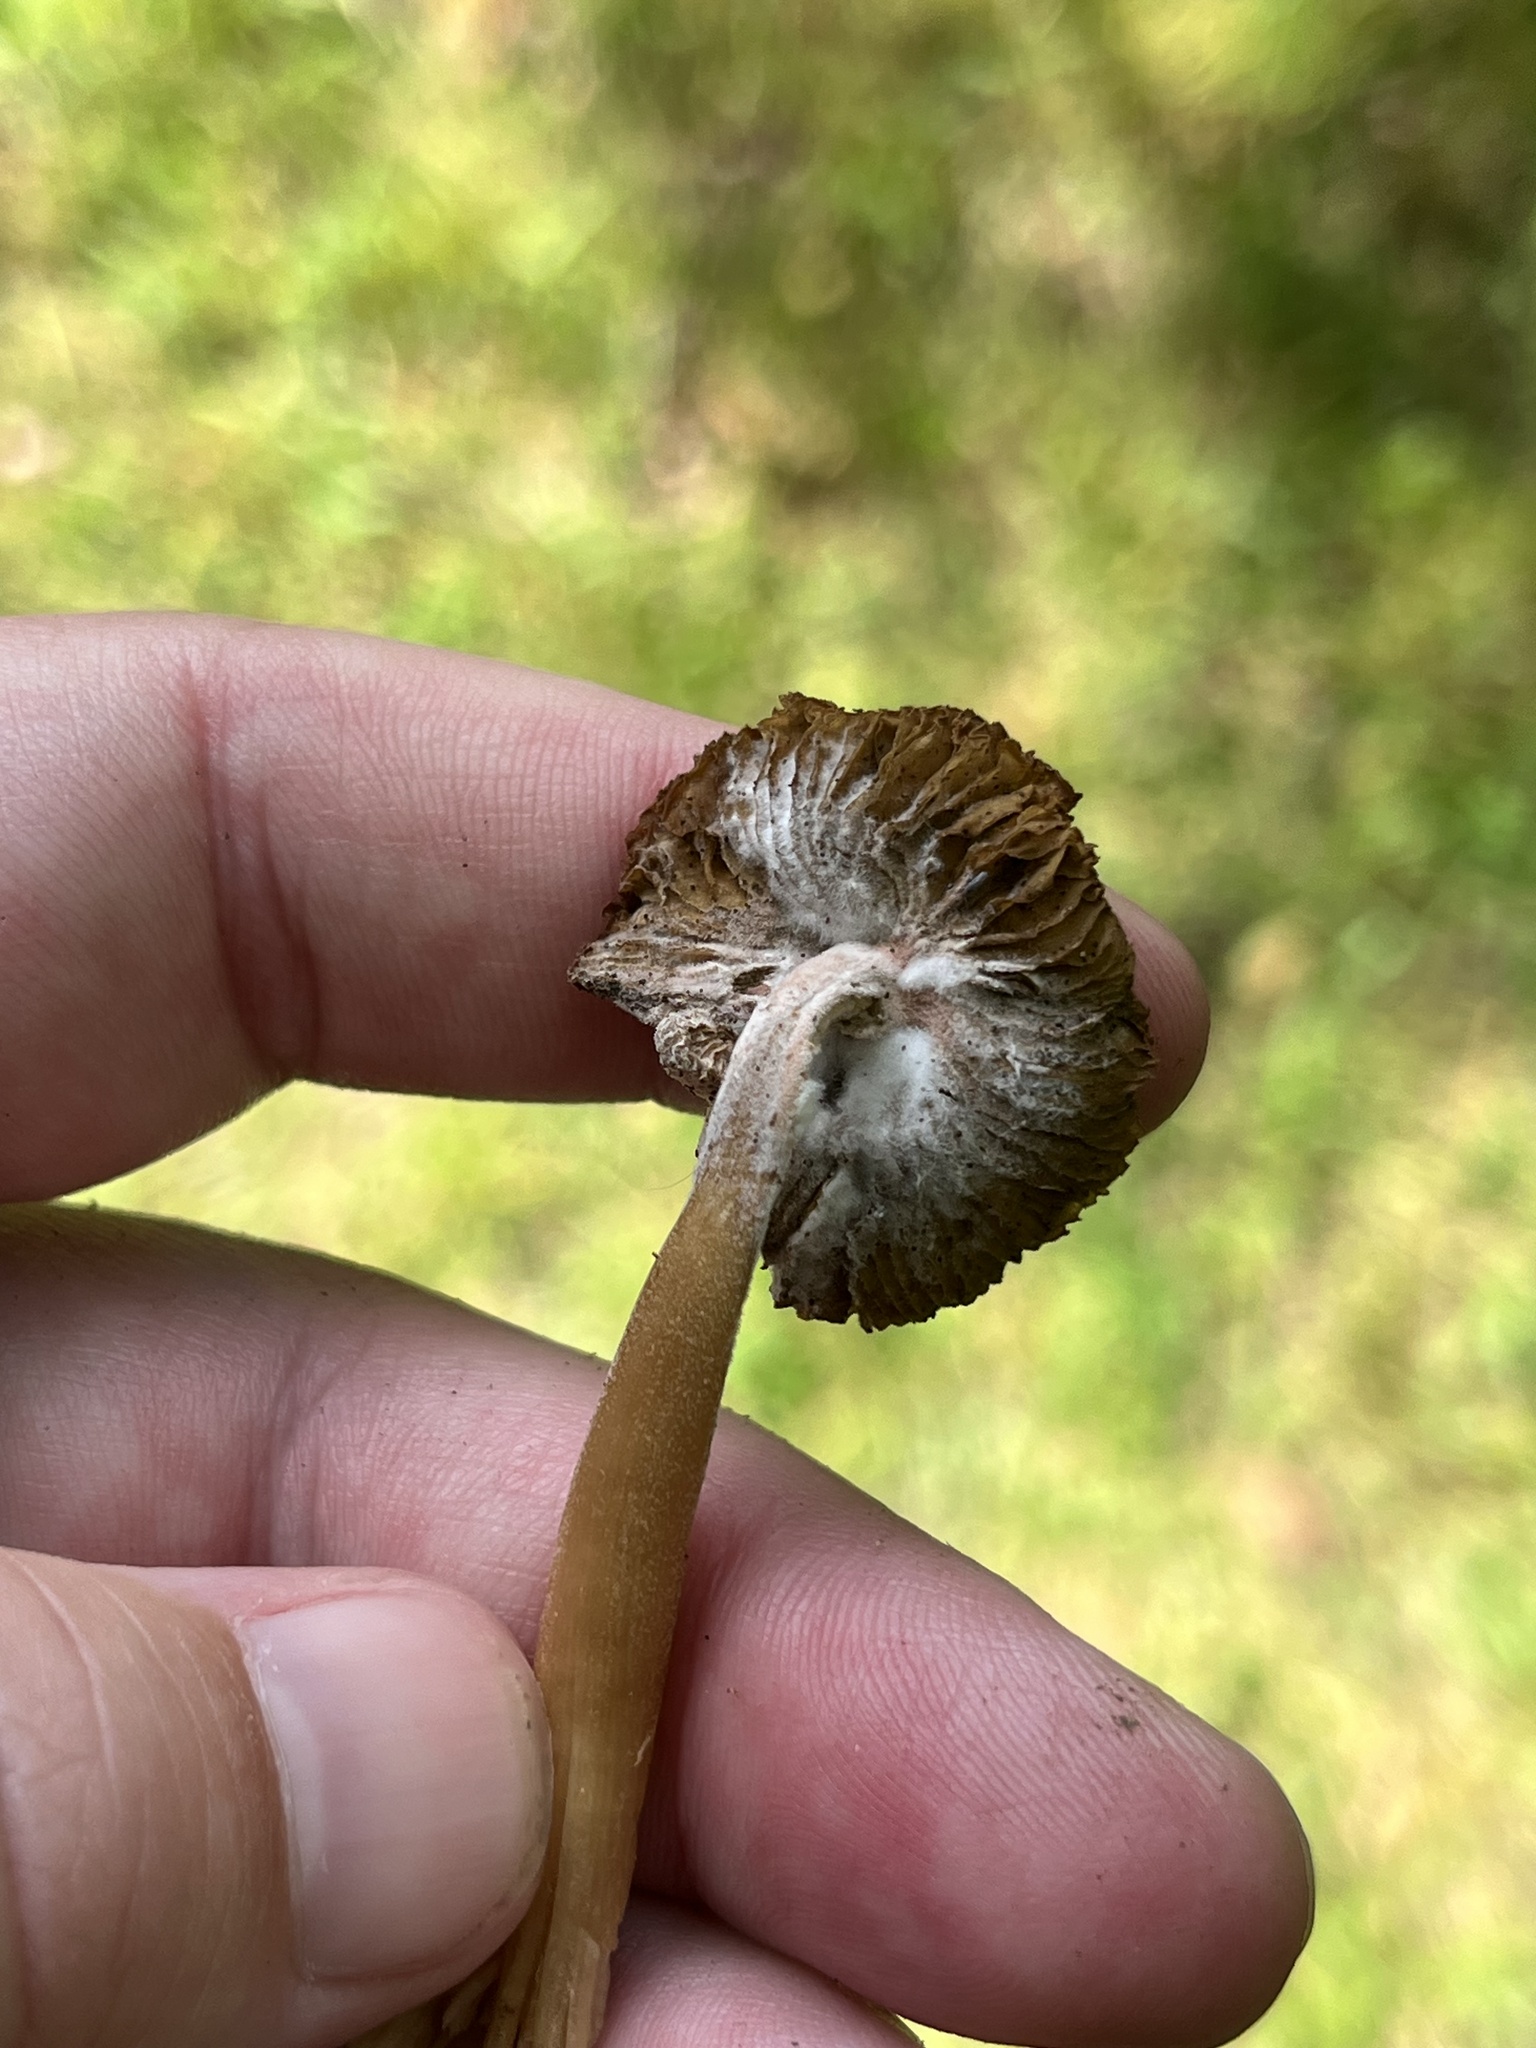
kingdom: Fungi
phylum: Ascomycota
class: Sordariomycetes
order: Hypocreales
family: Hypocreaceae
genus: Mycogone
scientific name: Mycogone rosea
